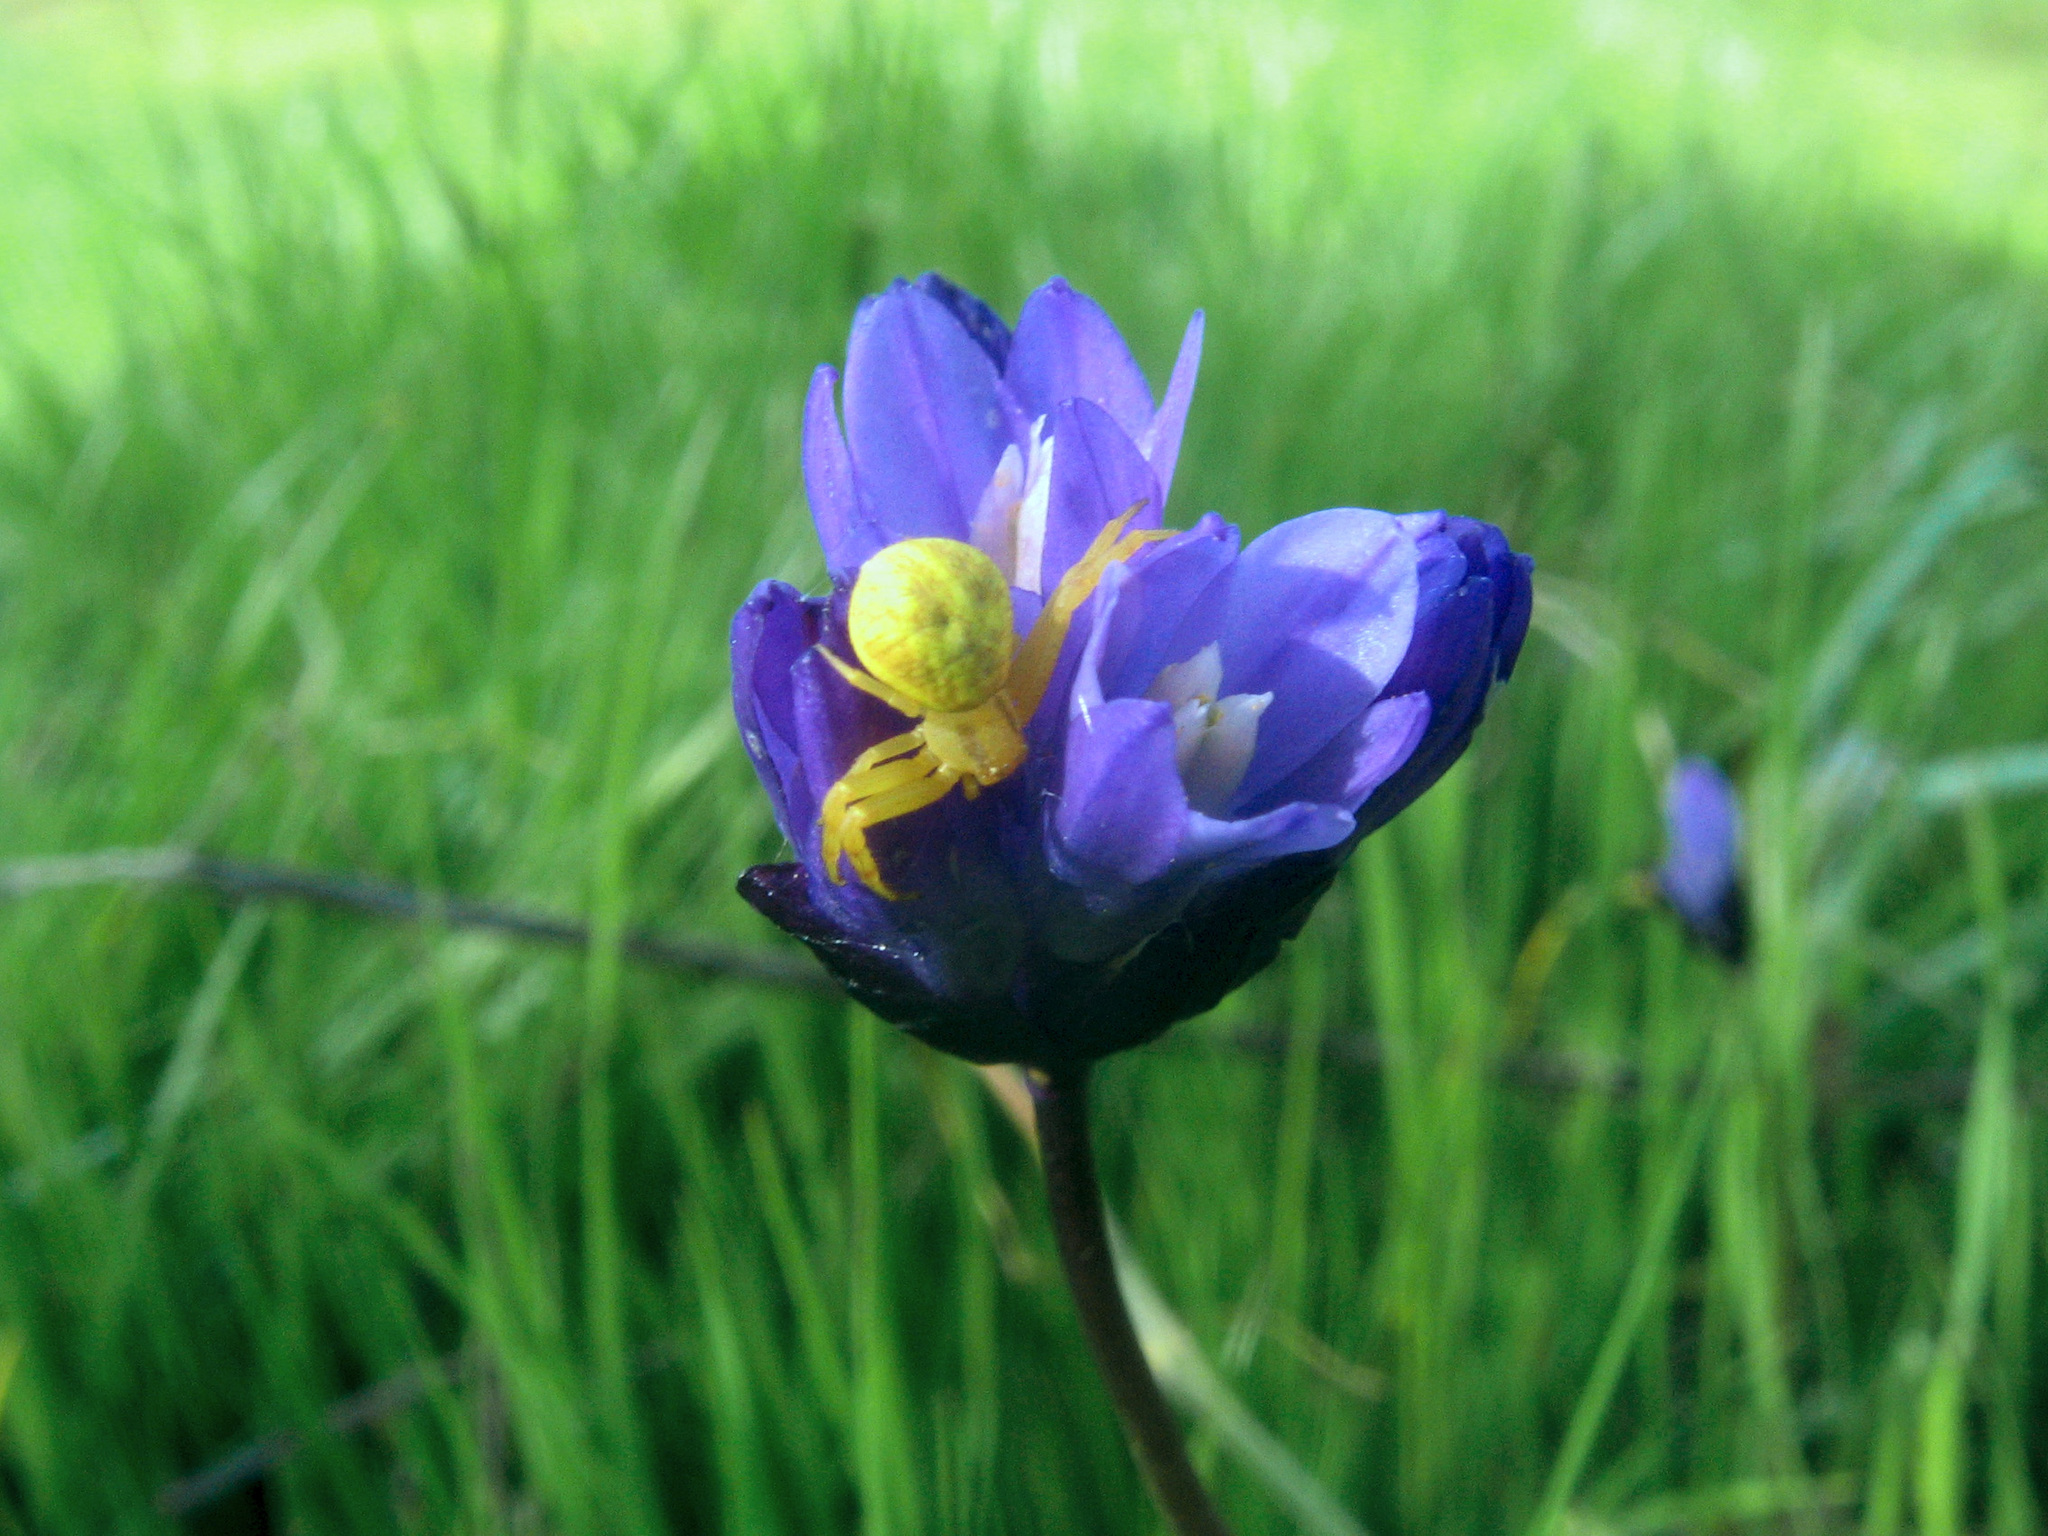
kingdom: Plantae
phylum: Tracheophyta
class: Liliopsida
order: Asparagales
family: Asparagaceae
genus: Dipterostemon
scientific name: Dipterostemon capitatus
